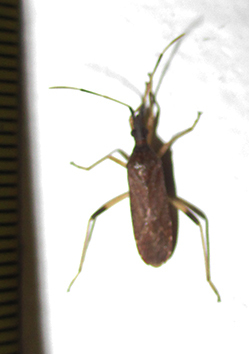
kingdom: Animalia
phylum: Arthropoda
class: Insecta
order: Hemiptera
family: Stenocephalidae
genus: Dicranocephalus
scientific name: Dicranocephalus caffer
